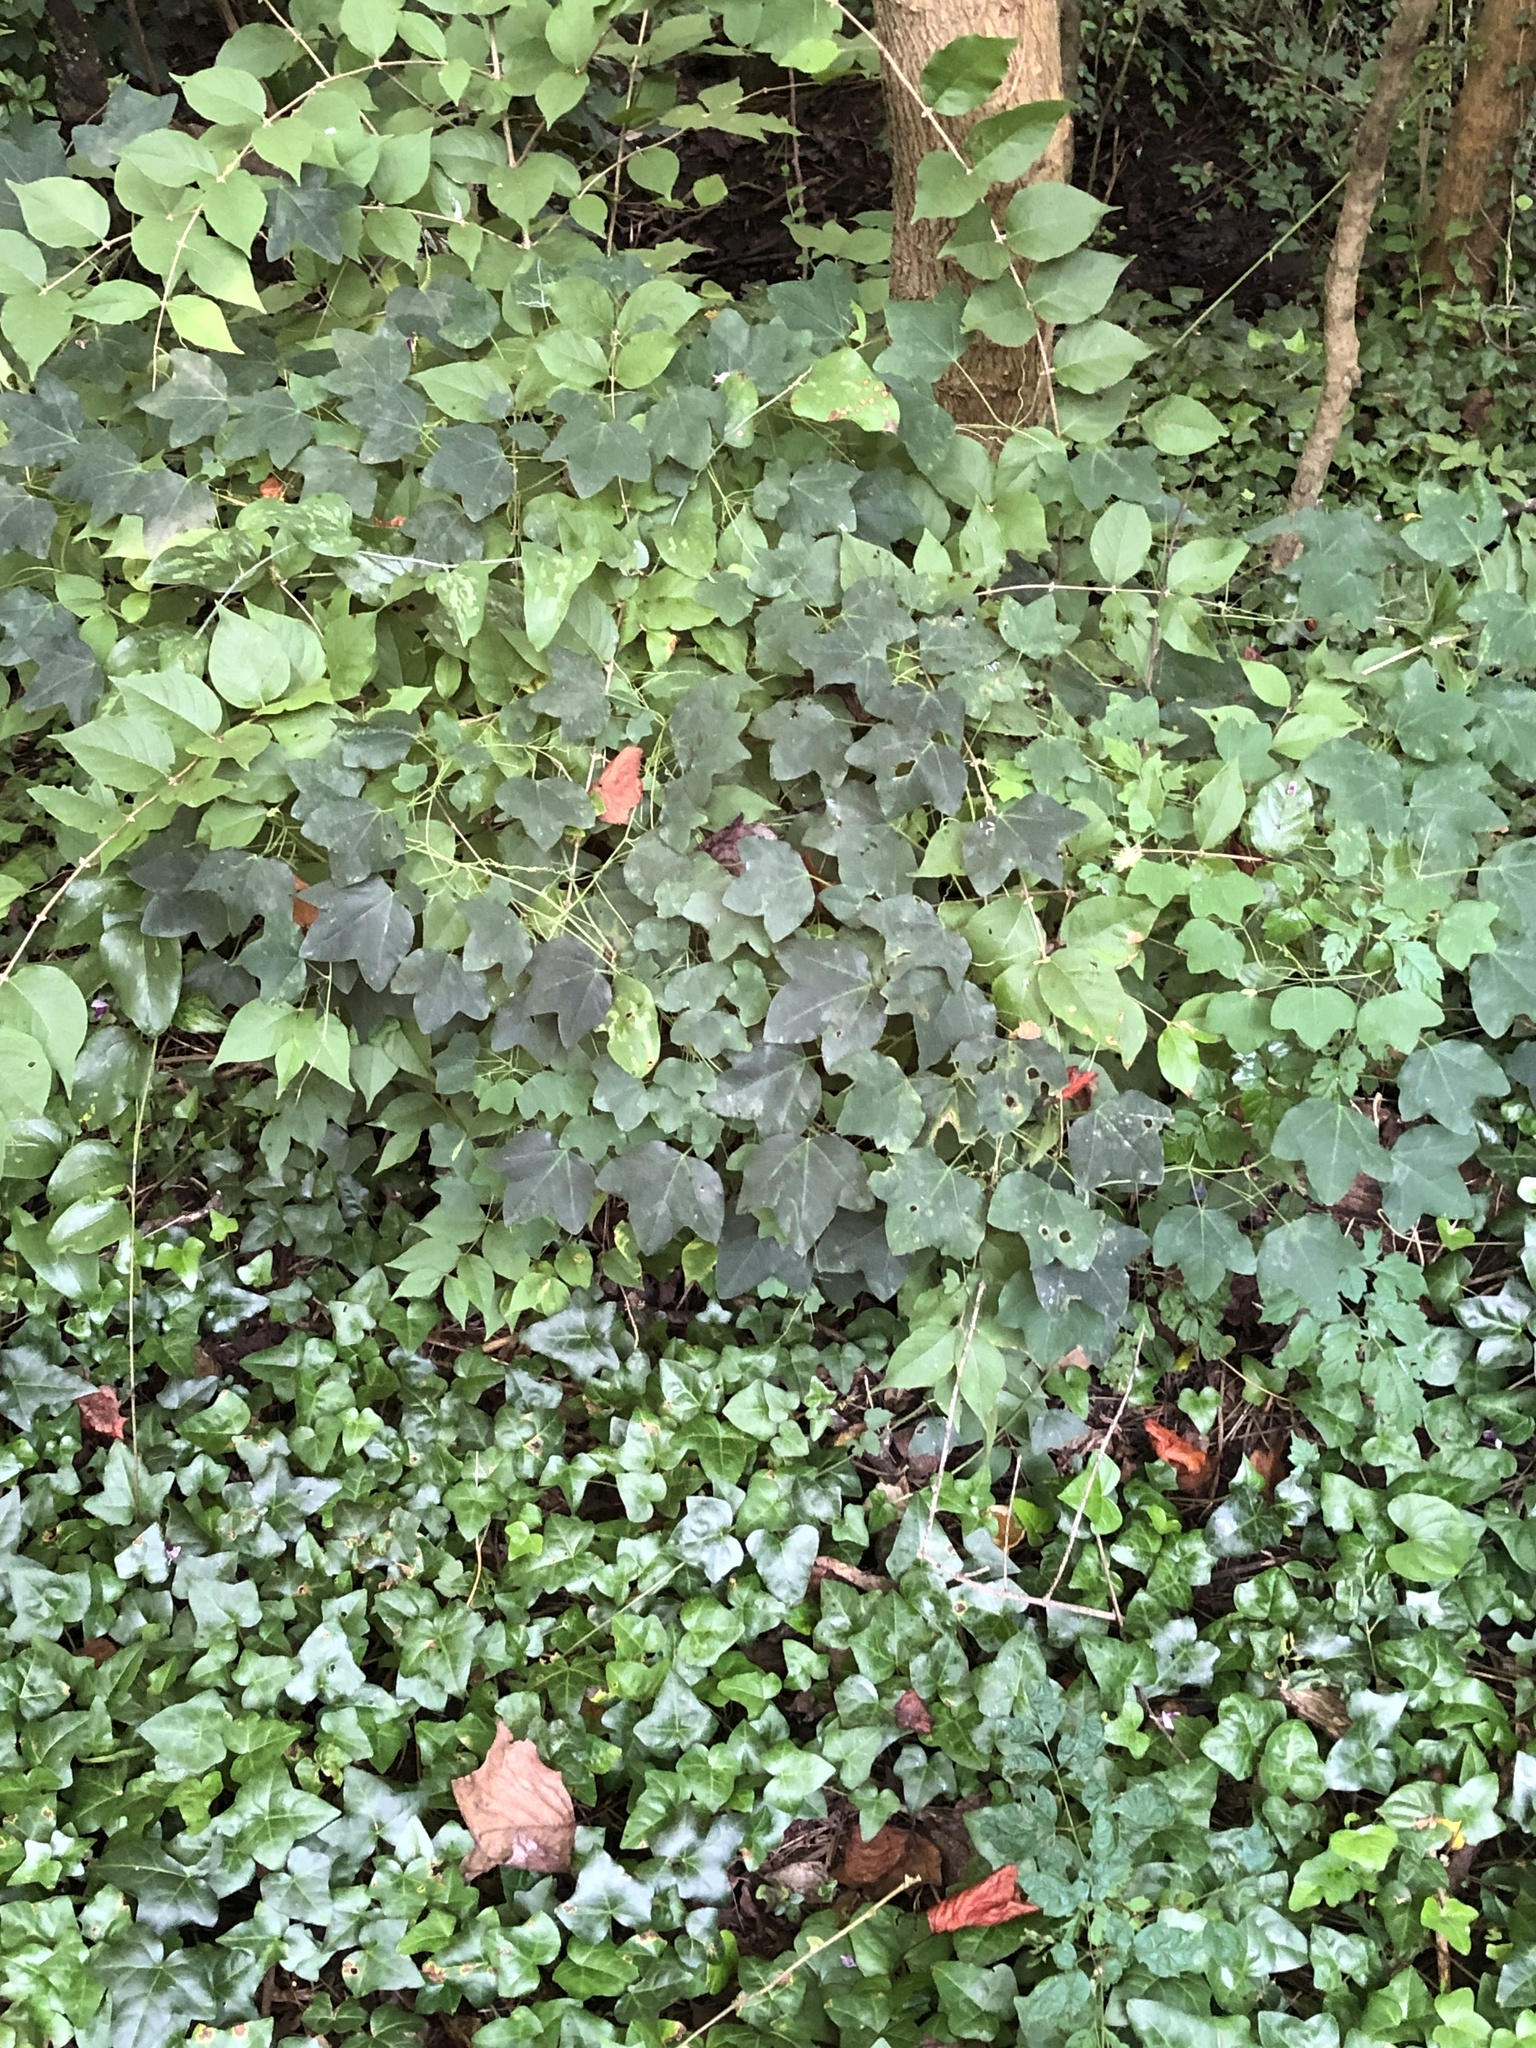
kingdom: Plantae
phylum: Tracheophyta
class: Magnoliopsida
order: Malpighiales
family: Passifloraceae
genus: Passiflora
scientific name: Passiflora lutea
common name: Yellow passionflower
